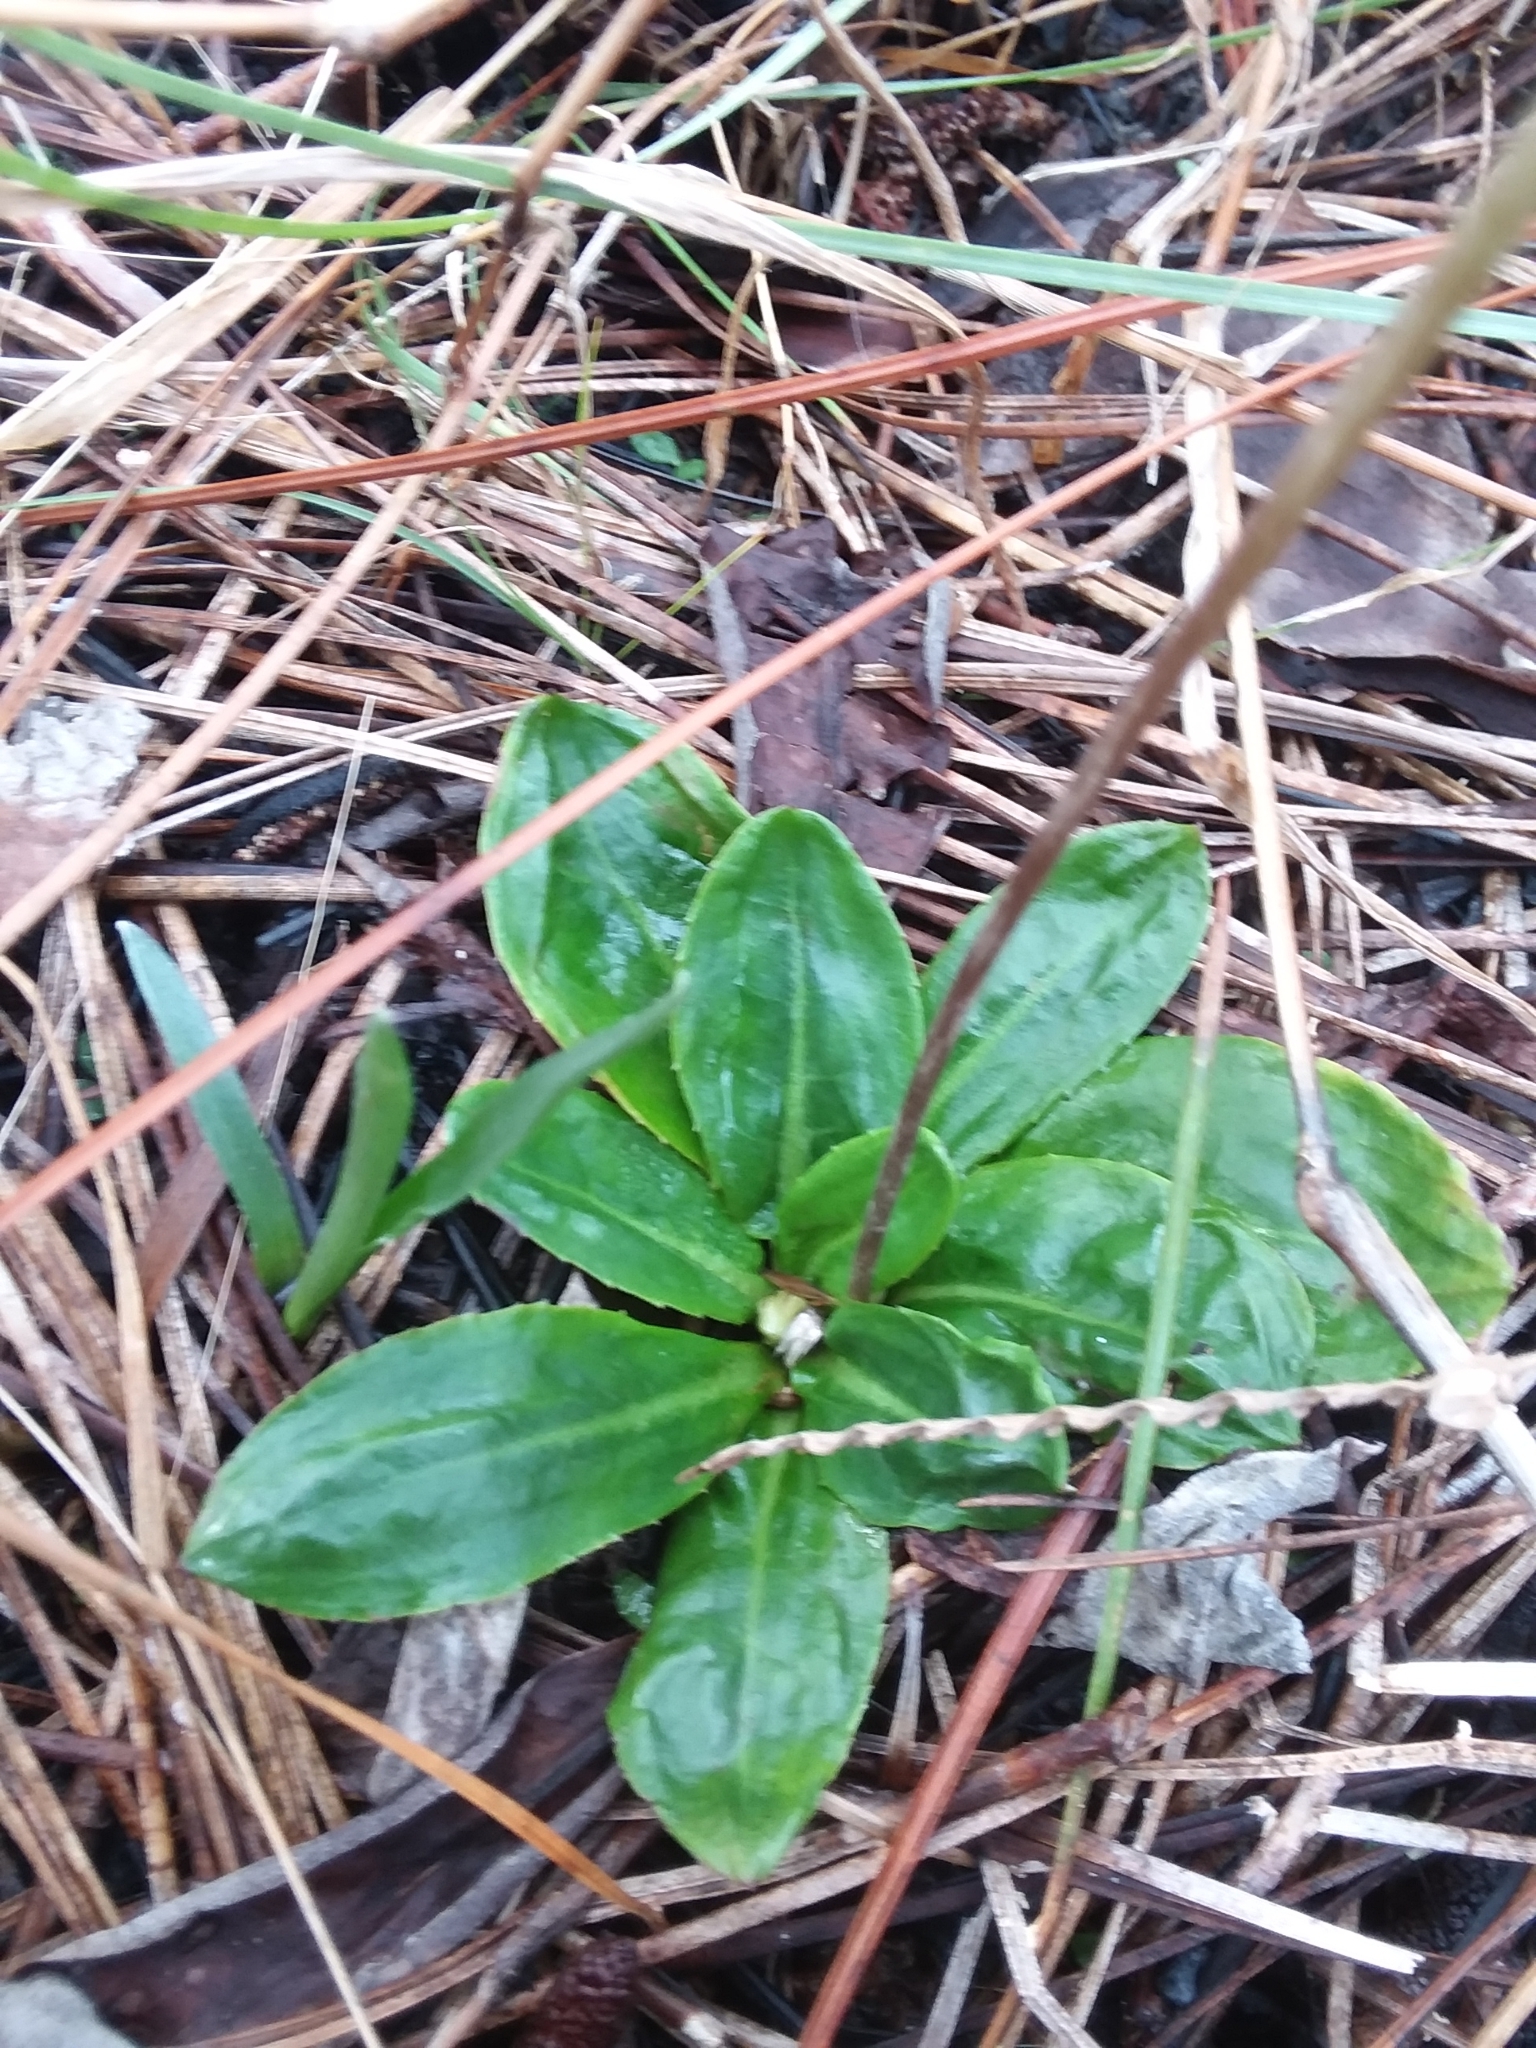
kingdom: Plantae
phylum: Tracheophyta
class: Magnoliopsida
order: Asterales
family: Asteraceae
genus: Chaptalia
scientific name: Chaptalia tomentosa
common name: Woolly sunbonnet
